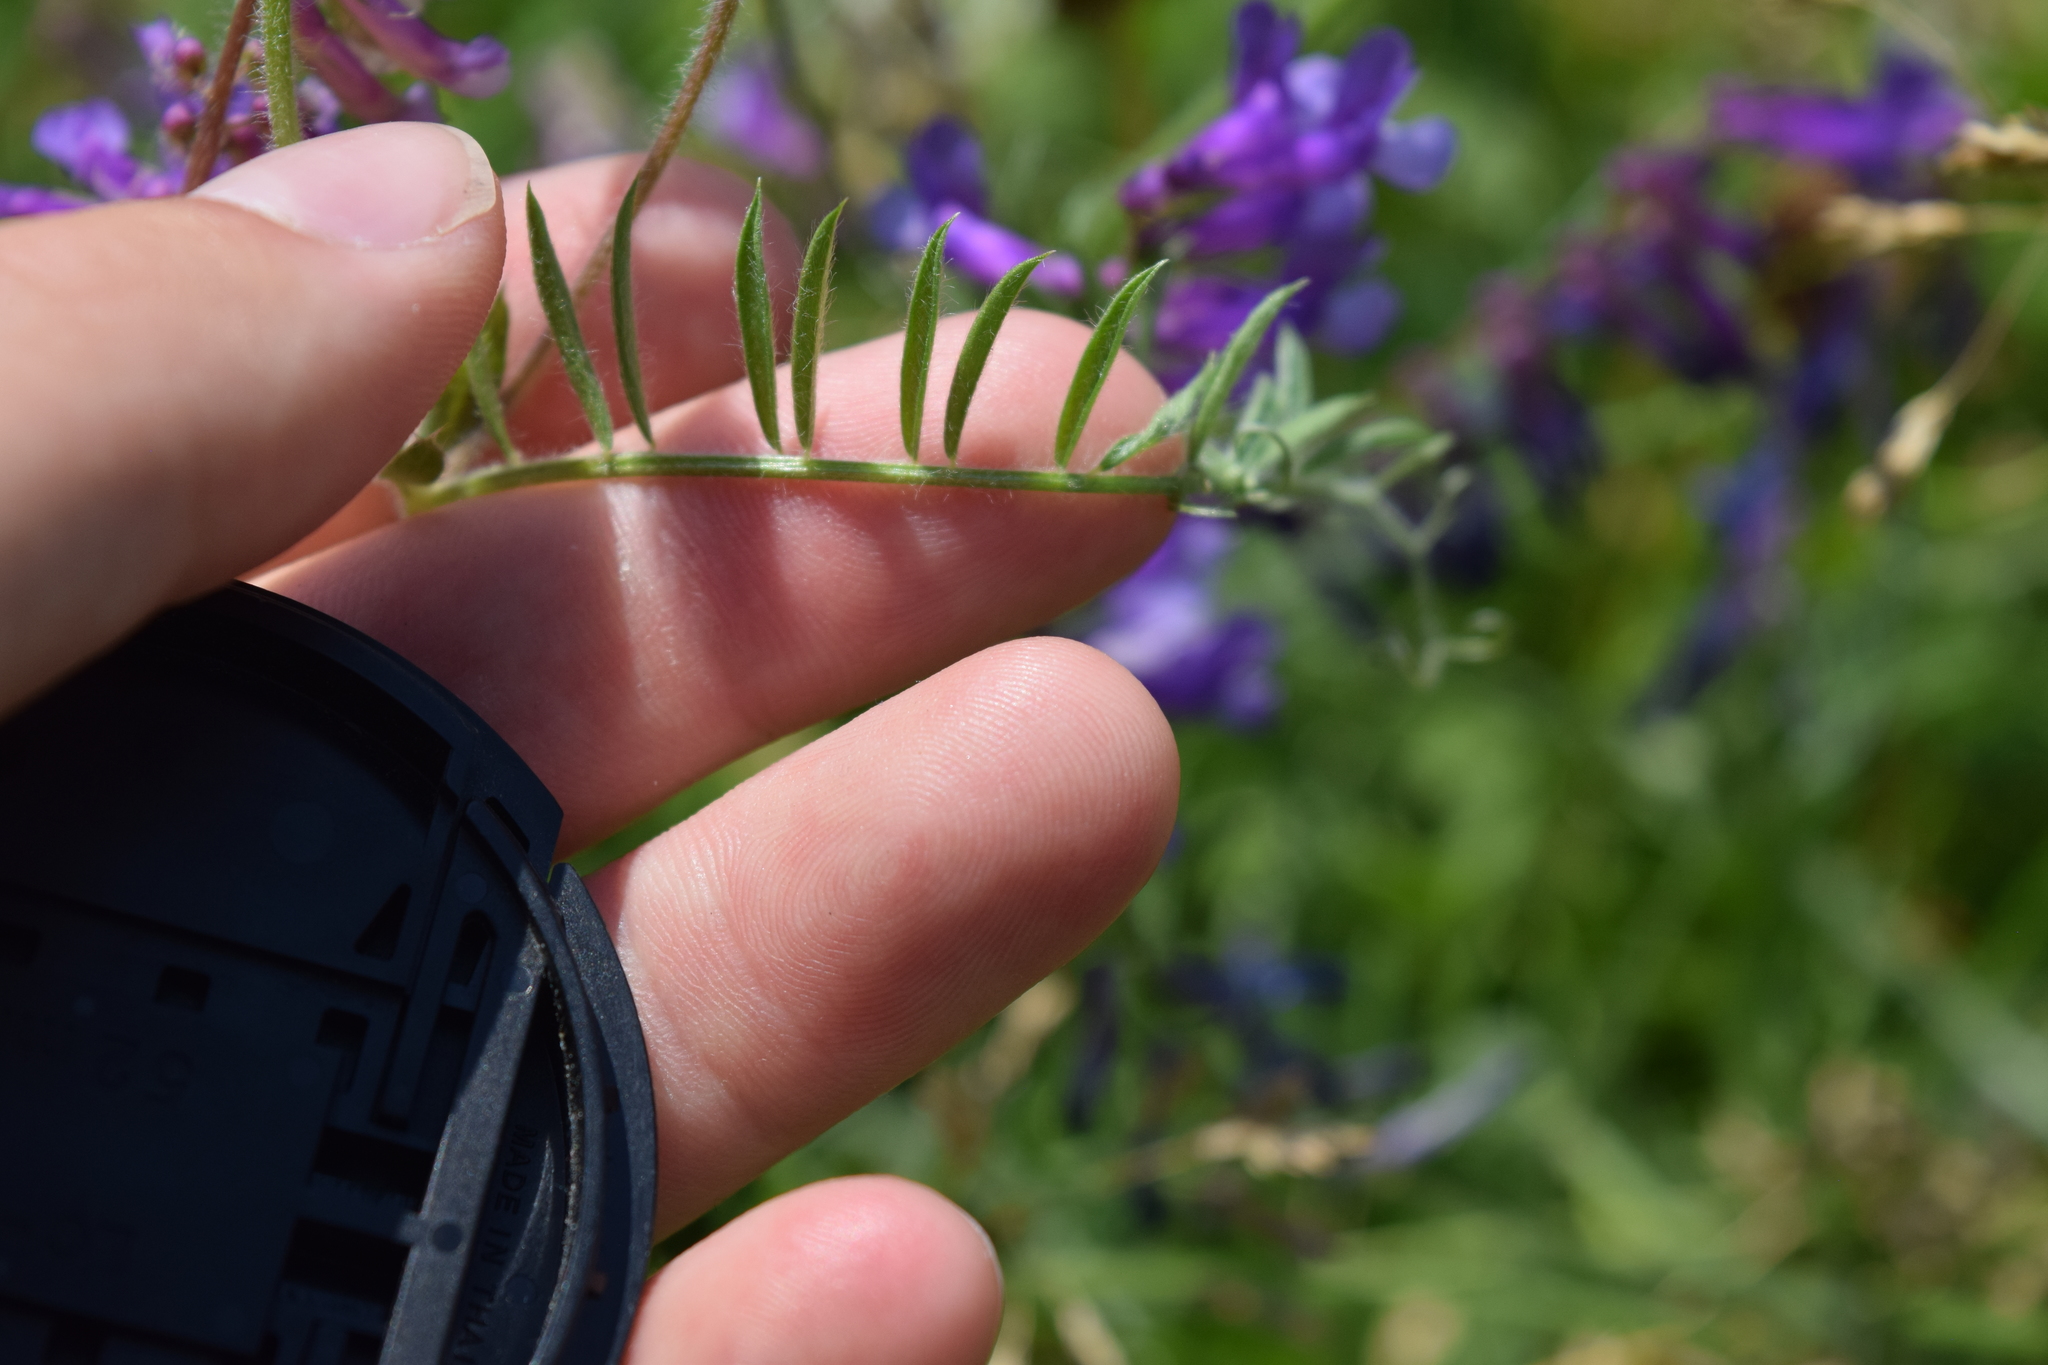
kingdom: Plantae
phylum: Tracheophyta
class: Magnoliopsida
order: Fabales
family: Fabaceae
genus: Vicia
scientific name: Vicia villosa
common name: Fodder vetch
